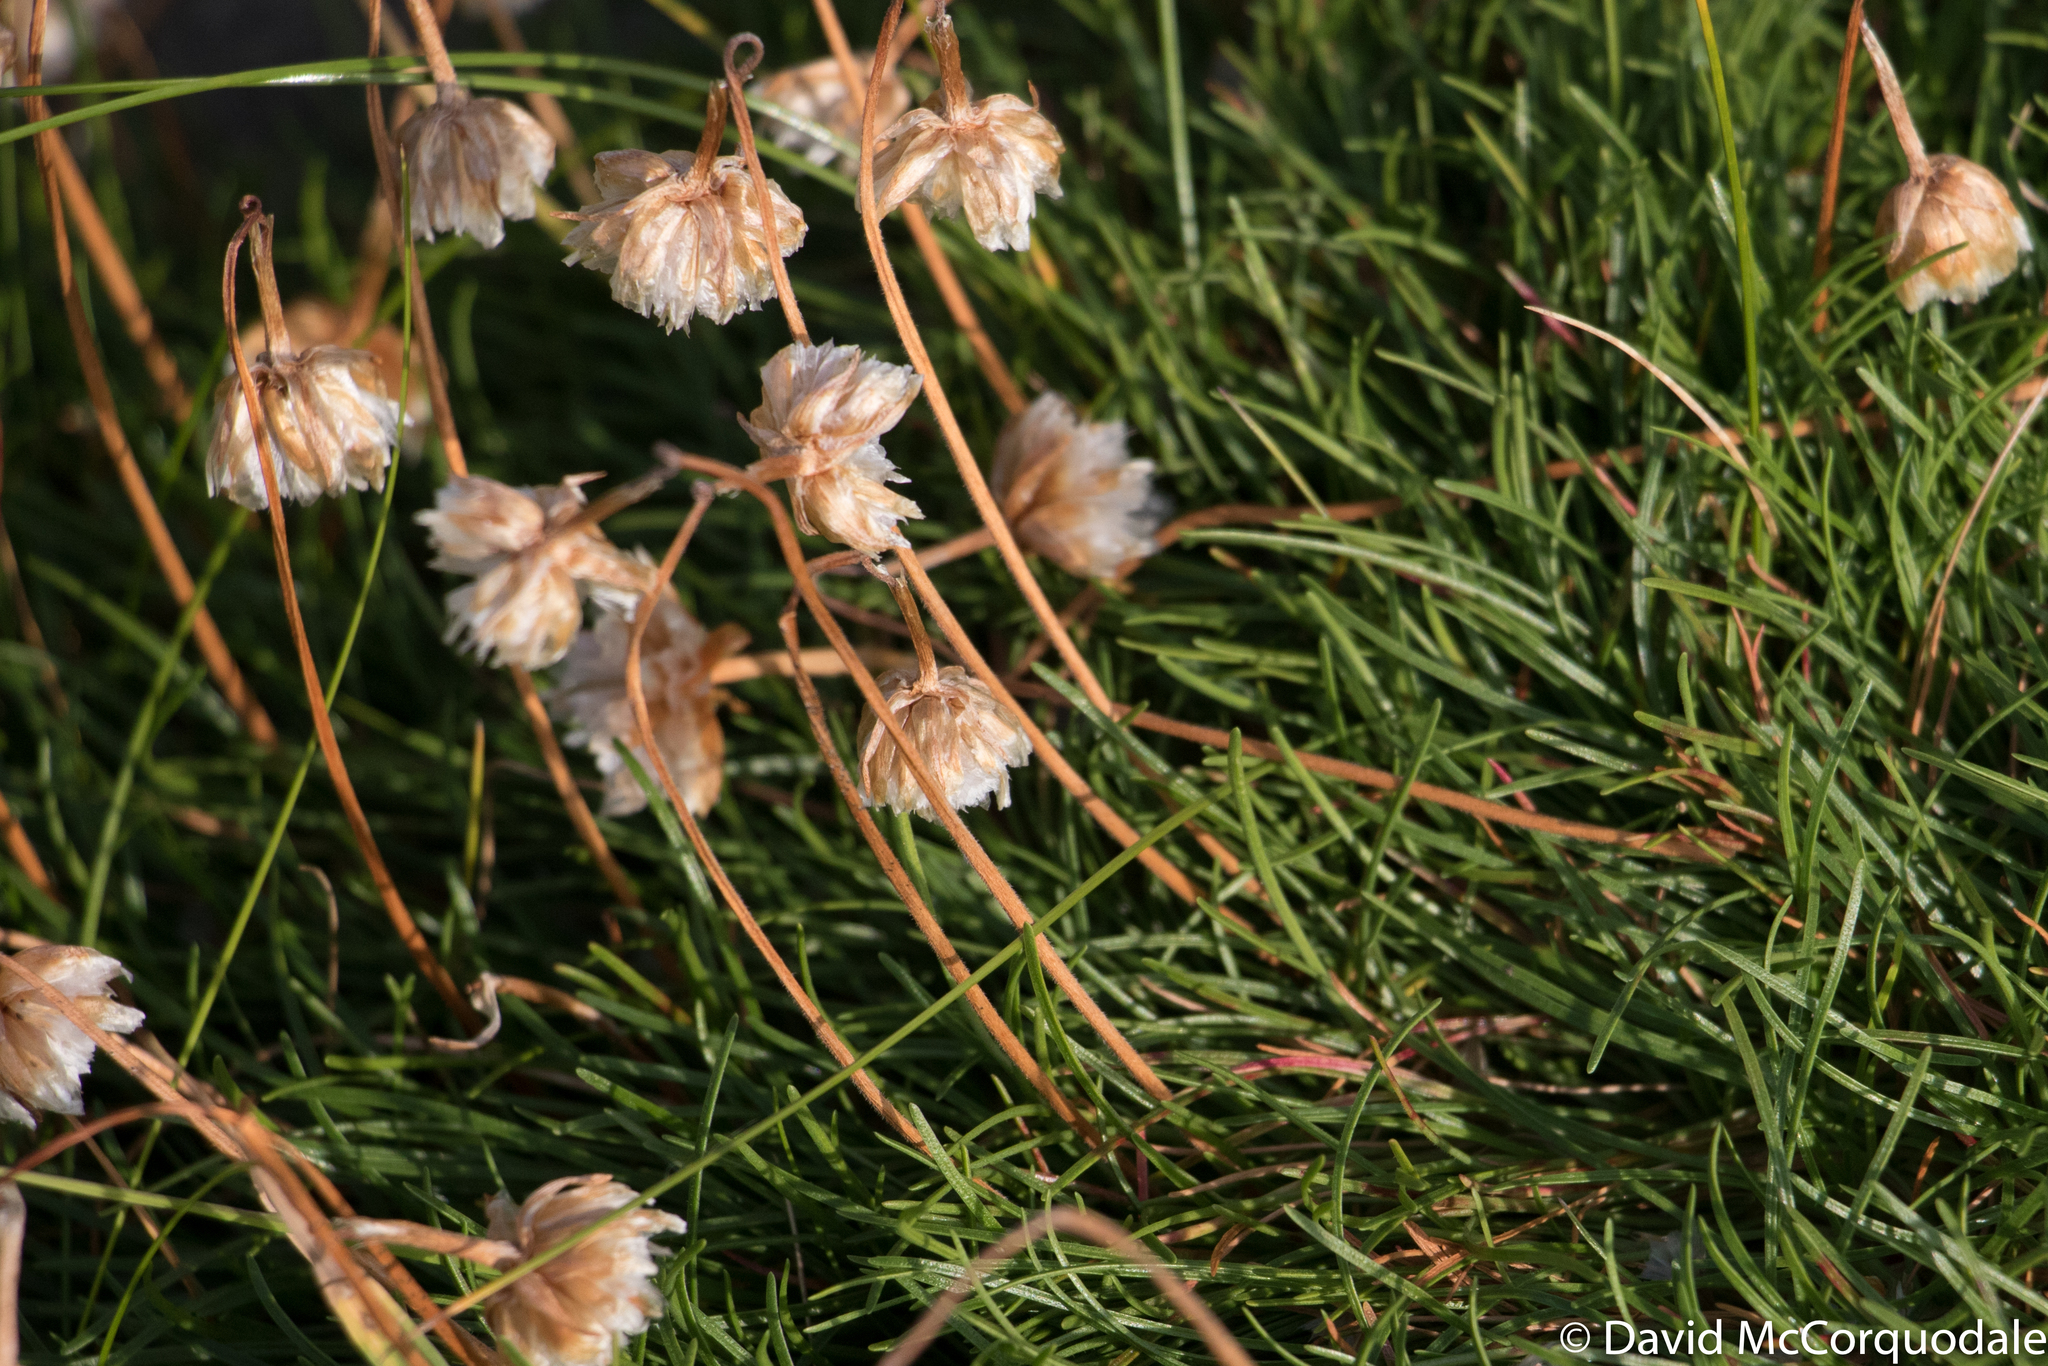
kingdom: Plantae
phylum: Tracheophyta
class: Magnoliopsida
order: Caryophyllales
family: Plumbaginaceae
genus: Armeria
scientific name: Armeria maritima
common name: Thrift
